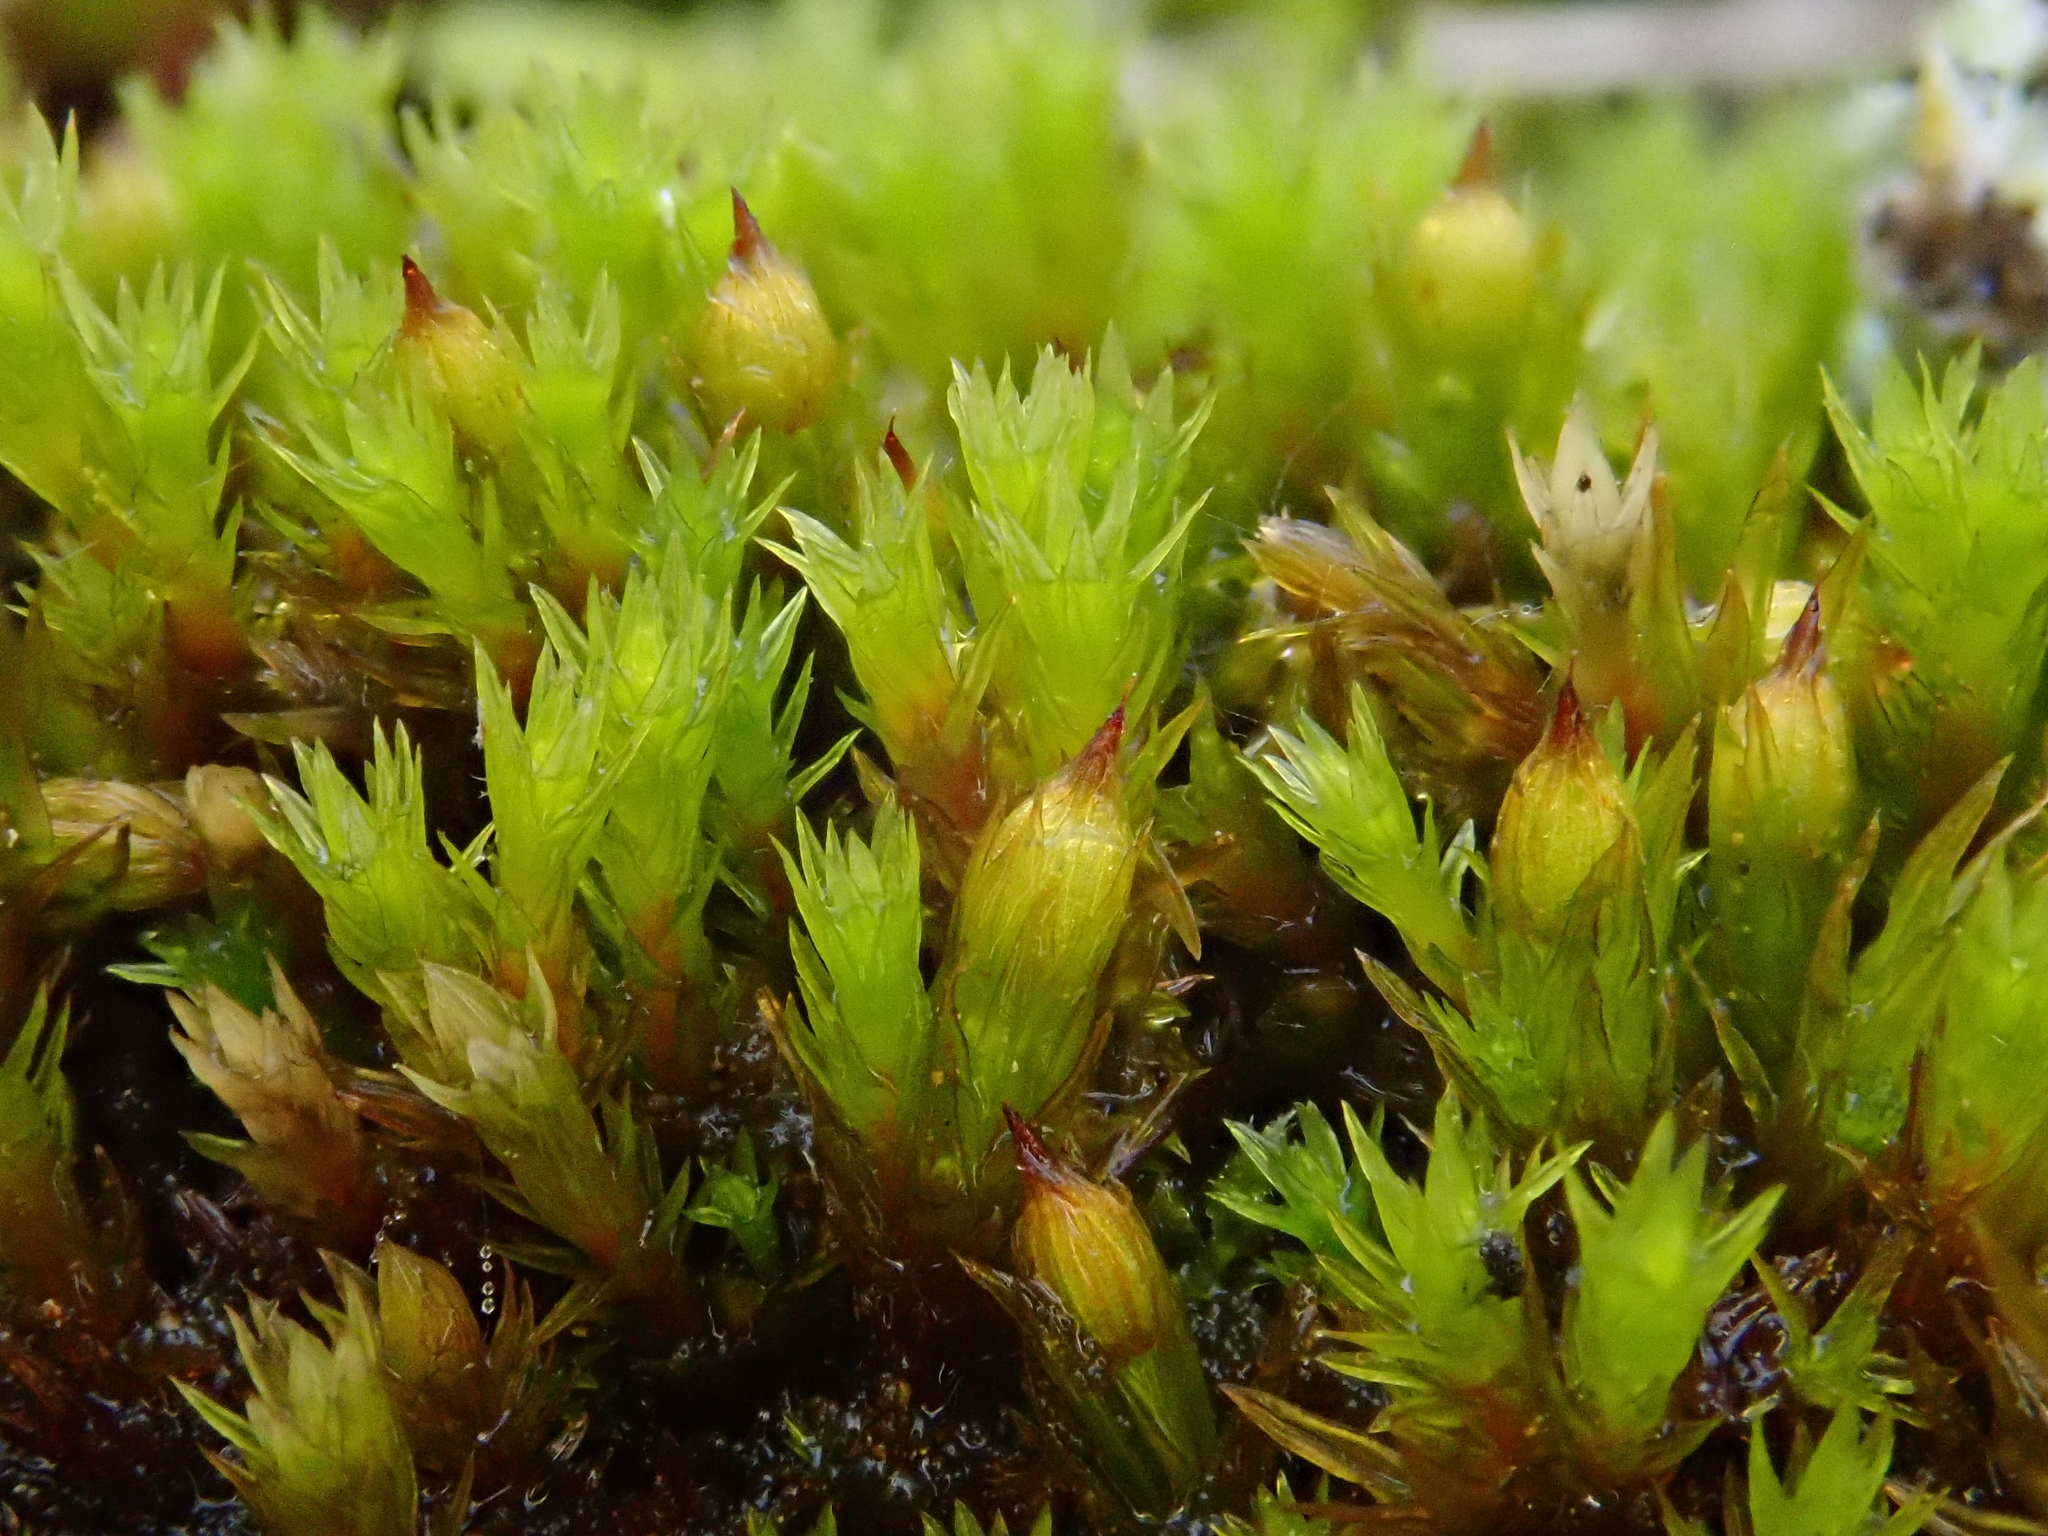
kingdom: Plantae
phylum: Bryophyta
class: Bryopsida
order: Orthotrichales
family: Orthotrichaceae
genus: Orthotrichum
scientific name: Orthotrichum cupulatum
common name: Hooded bristle-moss
